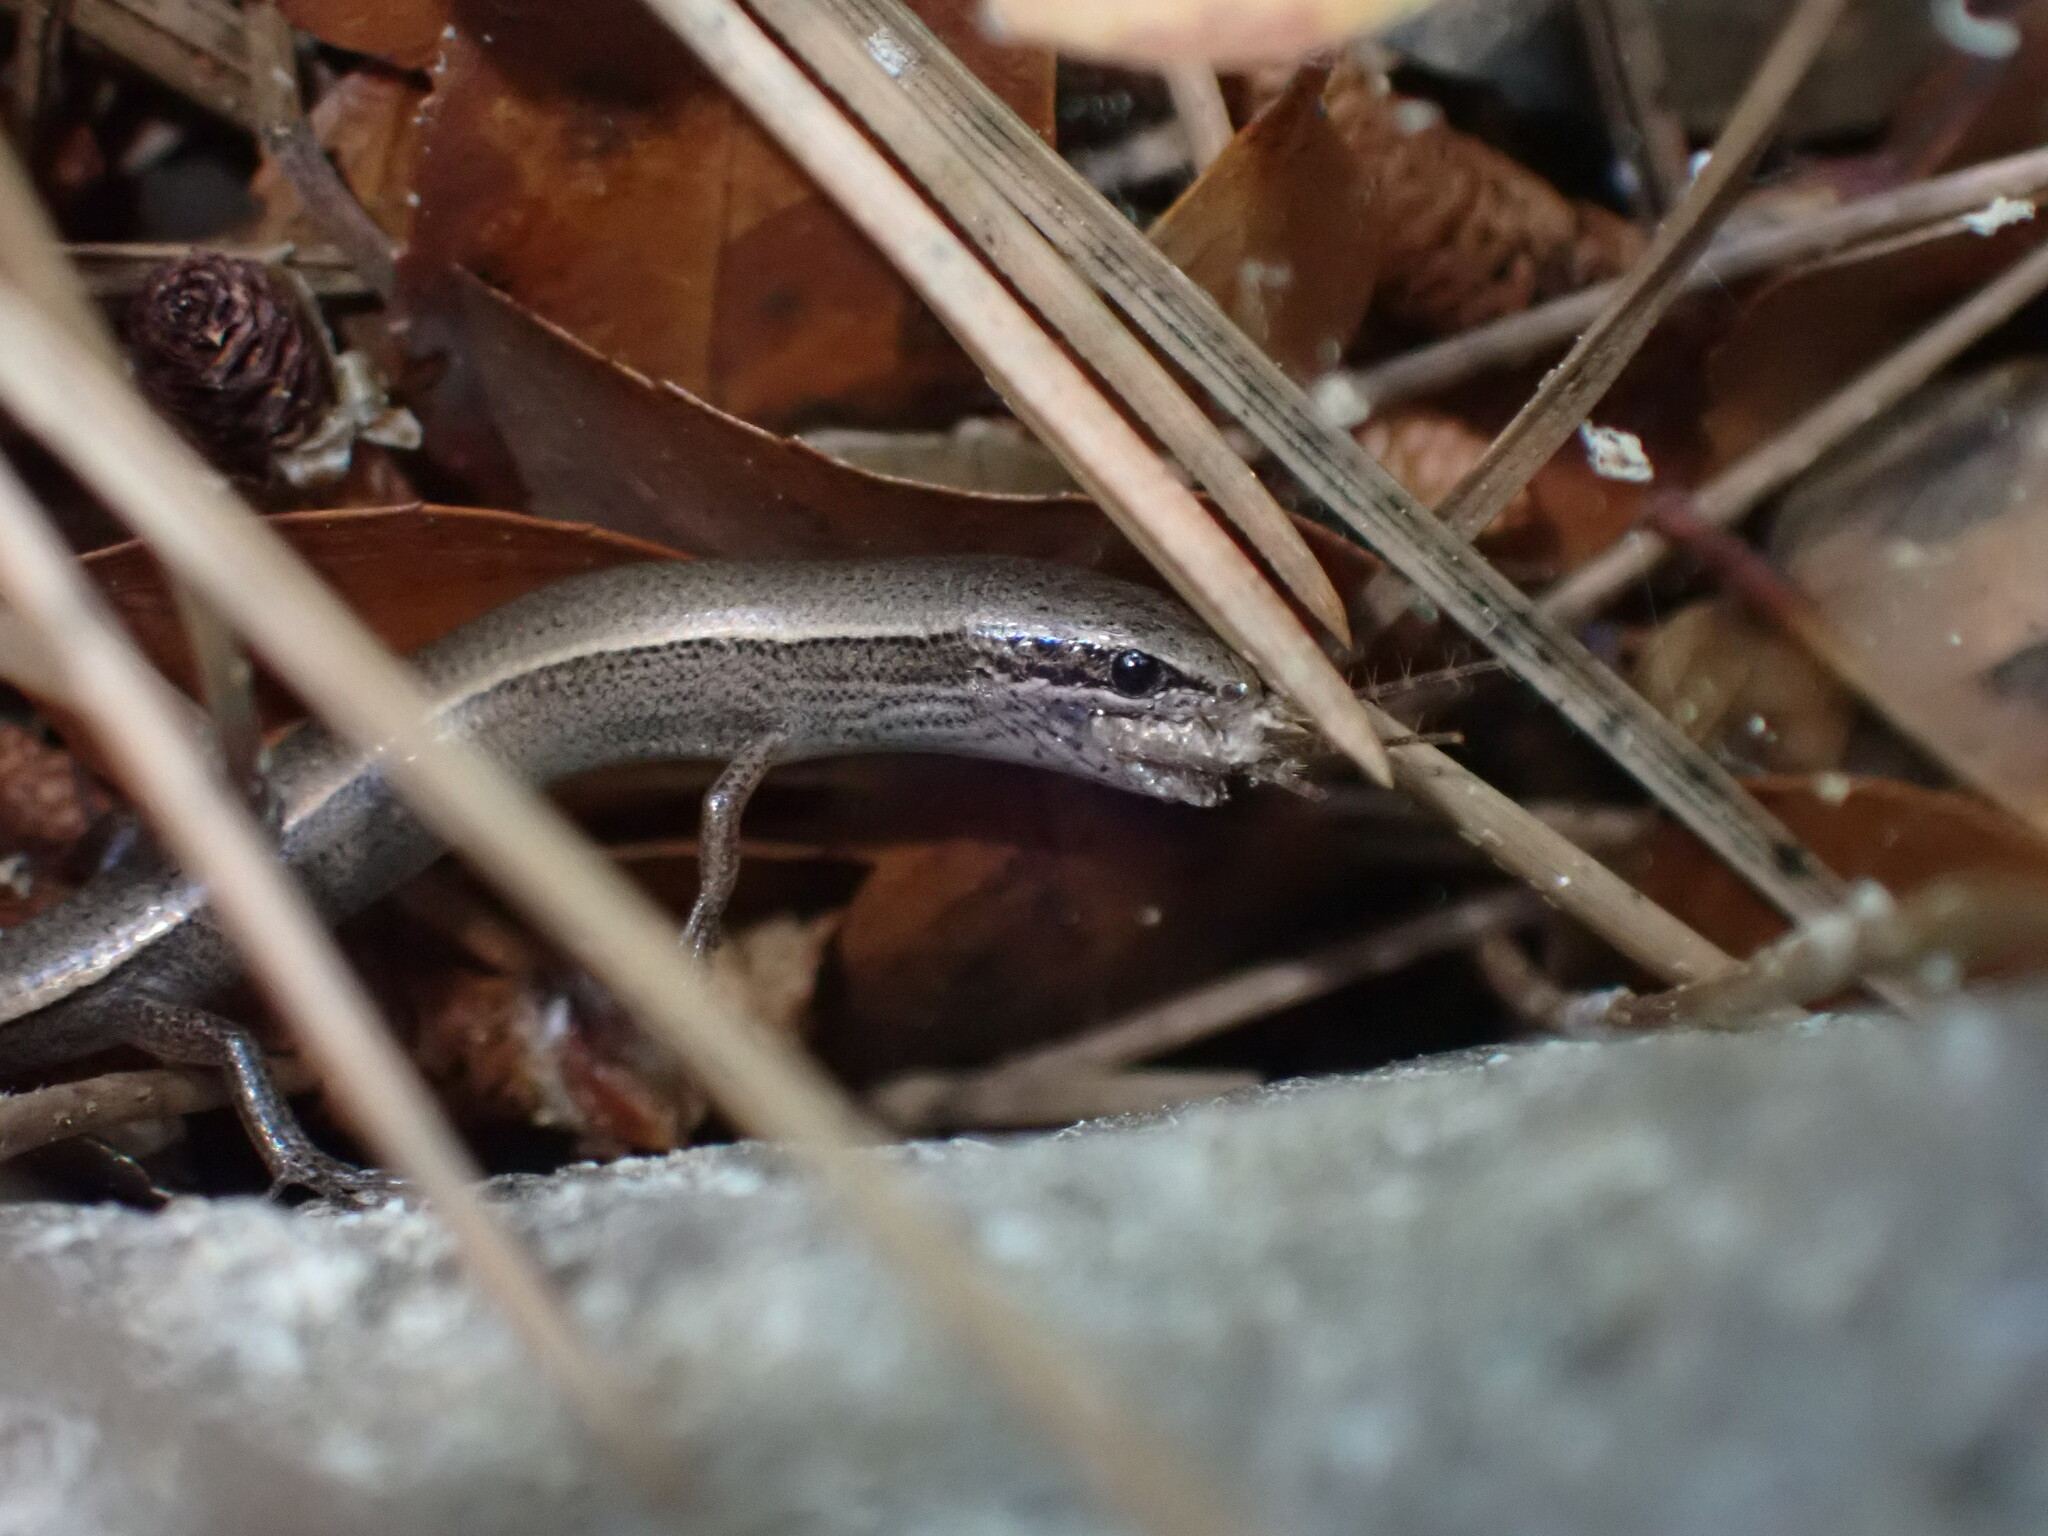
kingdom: Animalia
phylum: Chordata
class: Squamata
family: Scincidae
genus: Ablepharus
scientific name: Ablepharus anatolicus
